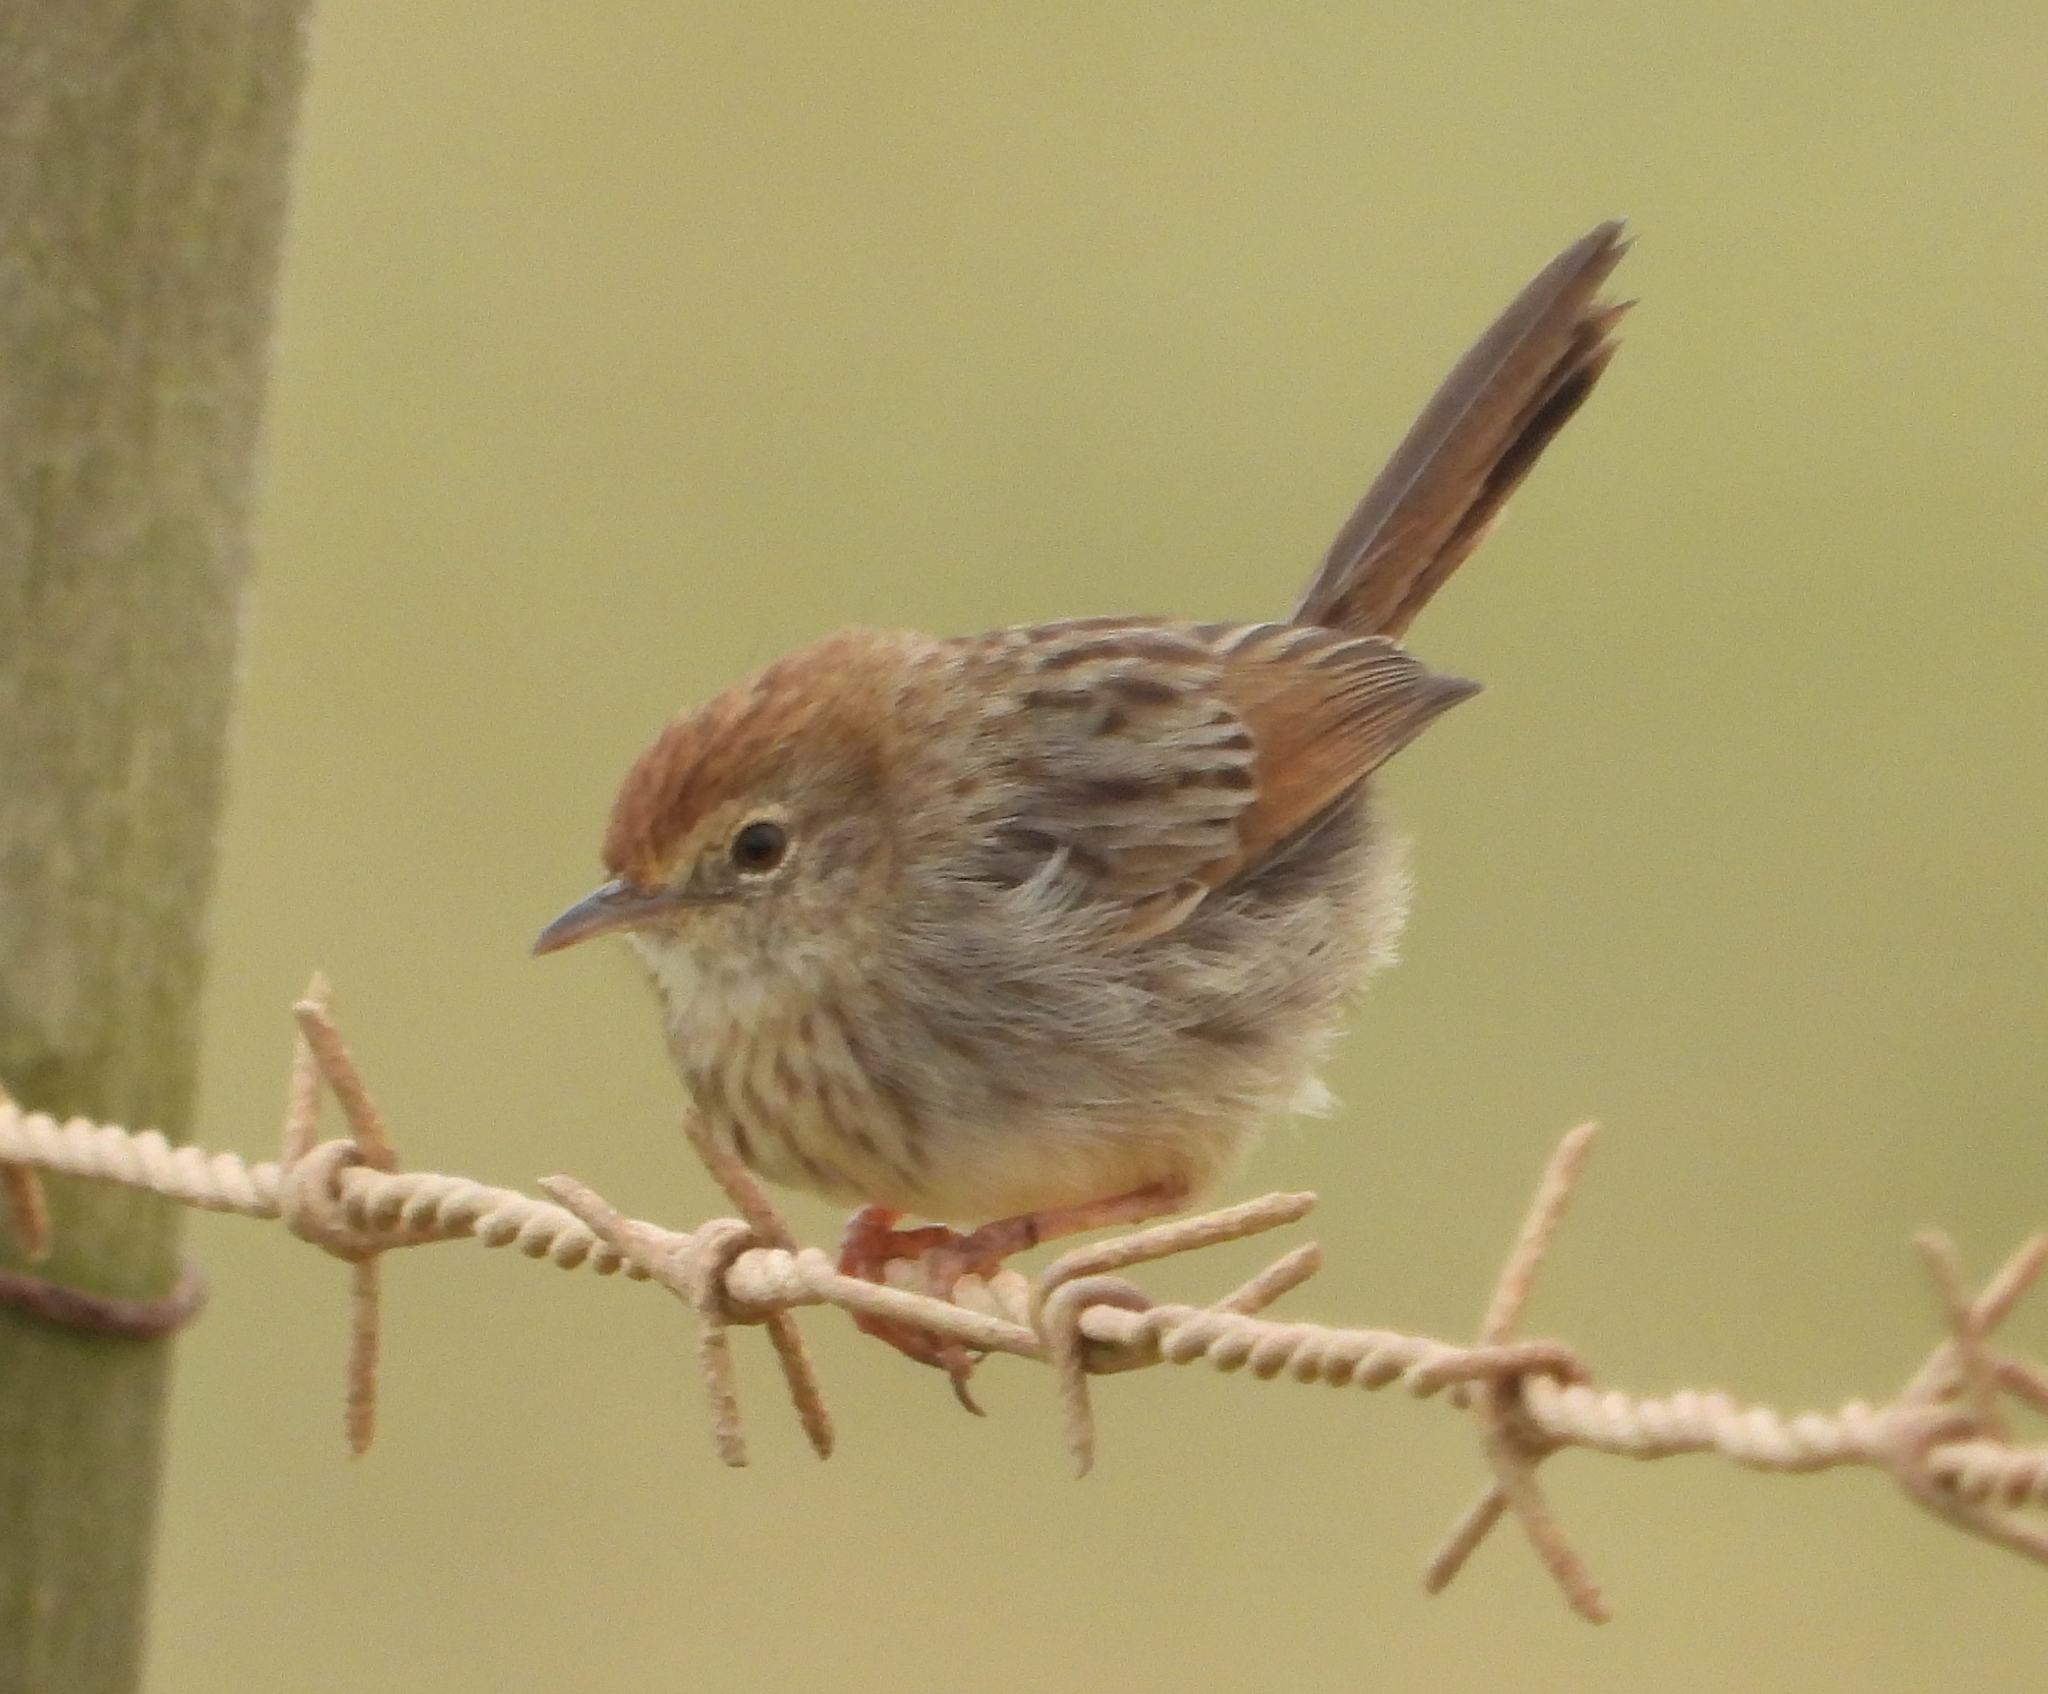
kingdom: Animalia
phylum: Chordata
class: Aves
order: Passeriformes
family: Cisticolidae
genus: Cisticola
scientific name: Cisticola subruficapilla
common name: Grey-backed cisticola
